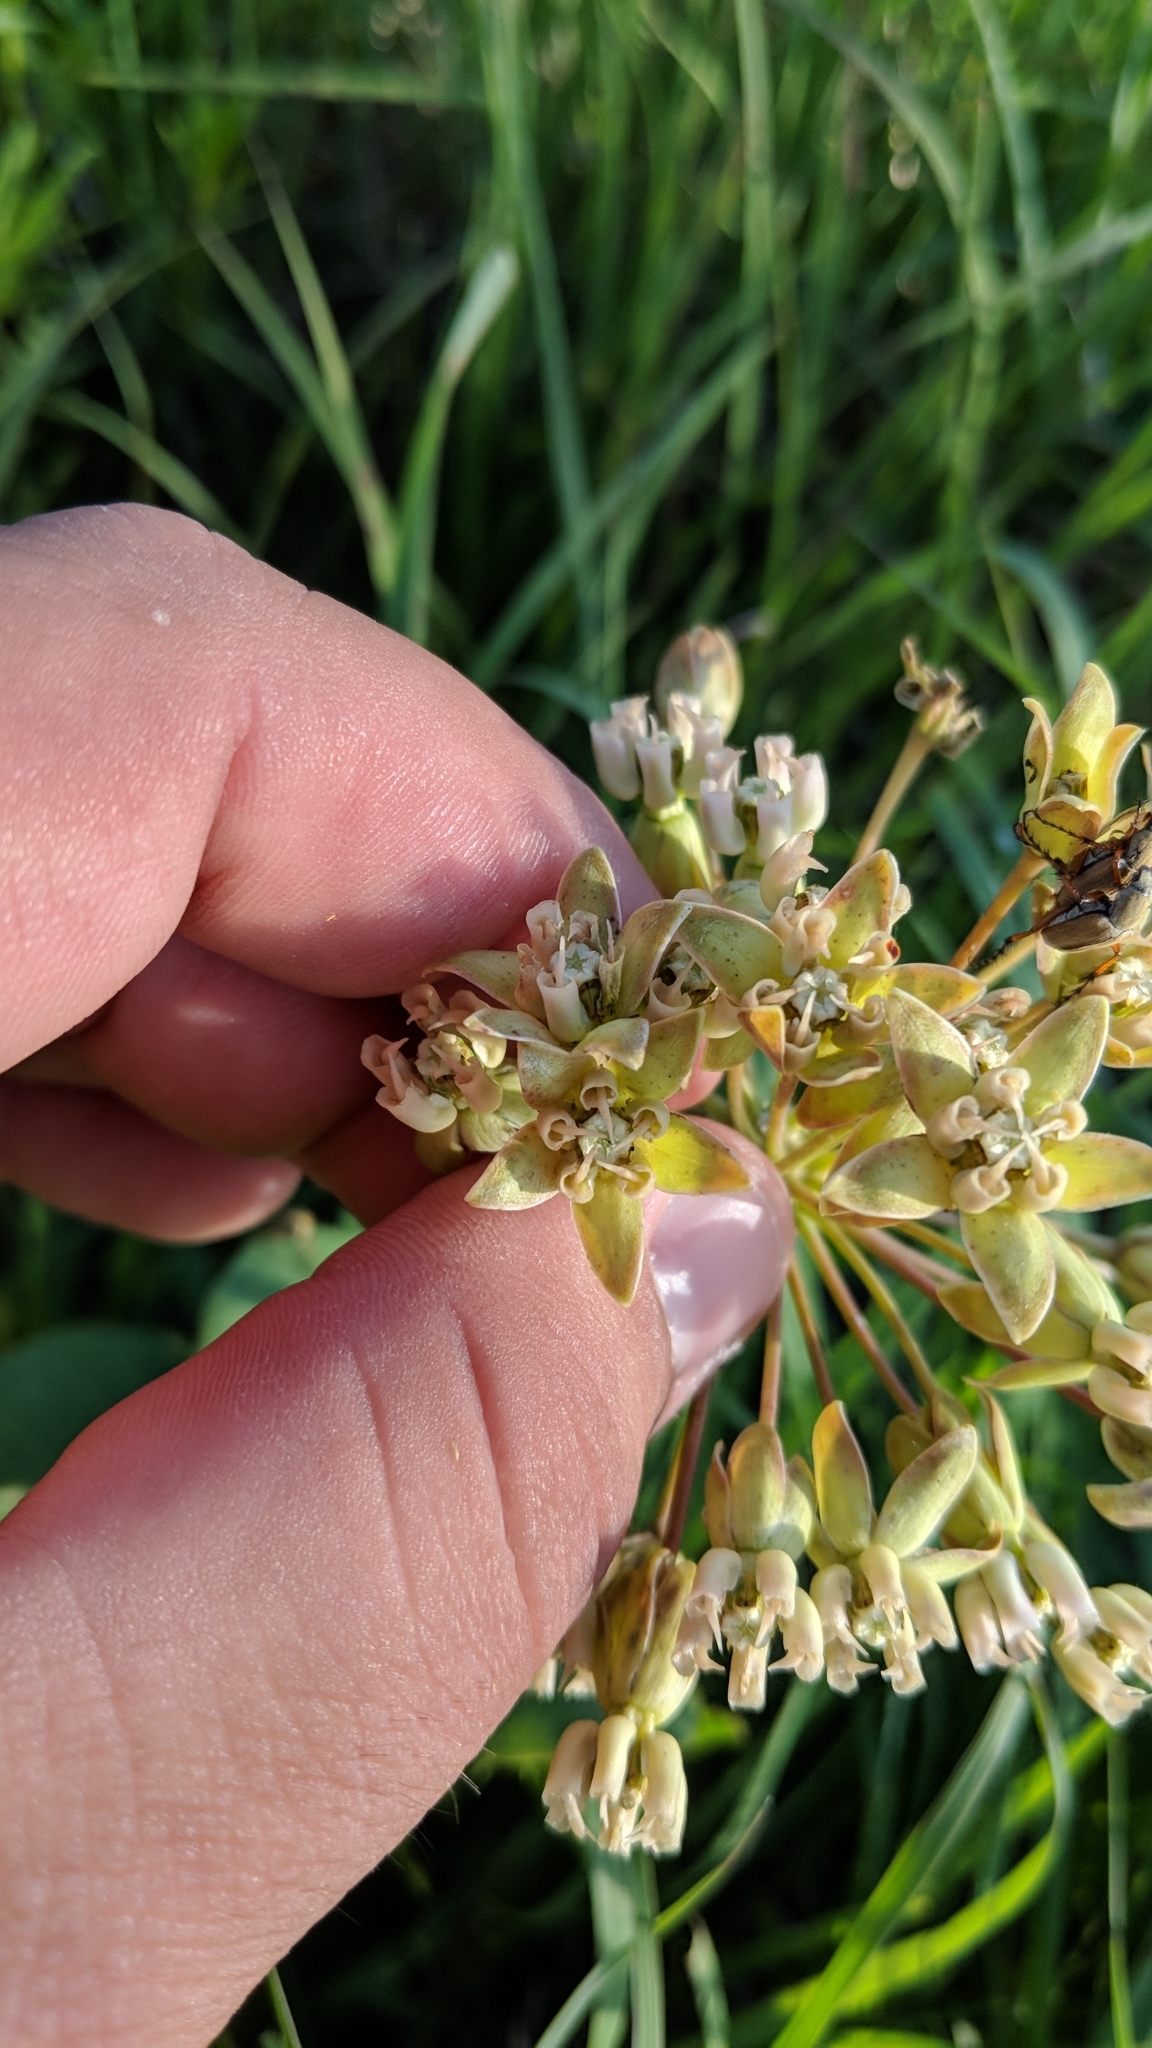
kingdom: Plantae
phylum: Tracheophyta
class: Magnoliopsida
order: Gentianales
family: Apocynaceae
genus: Asclepias
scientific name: Asclepias amplexicaulis
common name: Blunt-leaf milkweed
